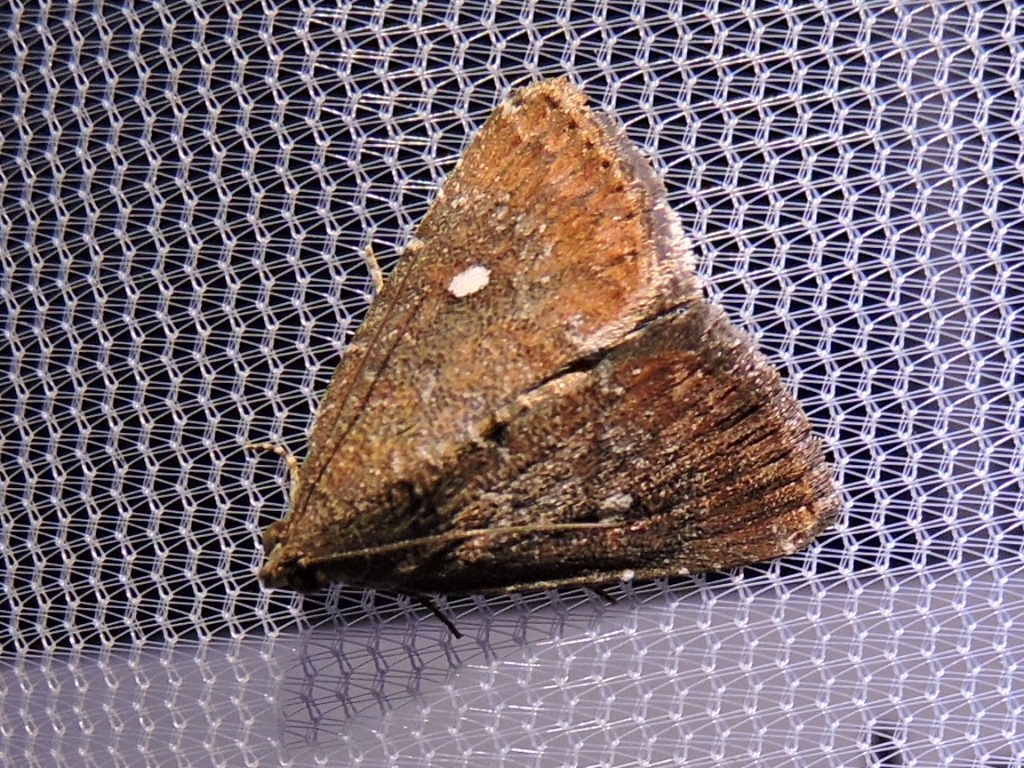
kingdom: Animalia
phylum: Arthropoda
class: Insecta
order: Lepidoptera
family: Noctuidae
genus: Amyna
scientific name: Amyna stricta
